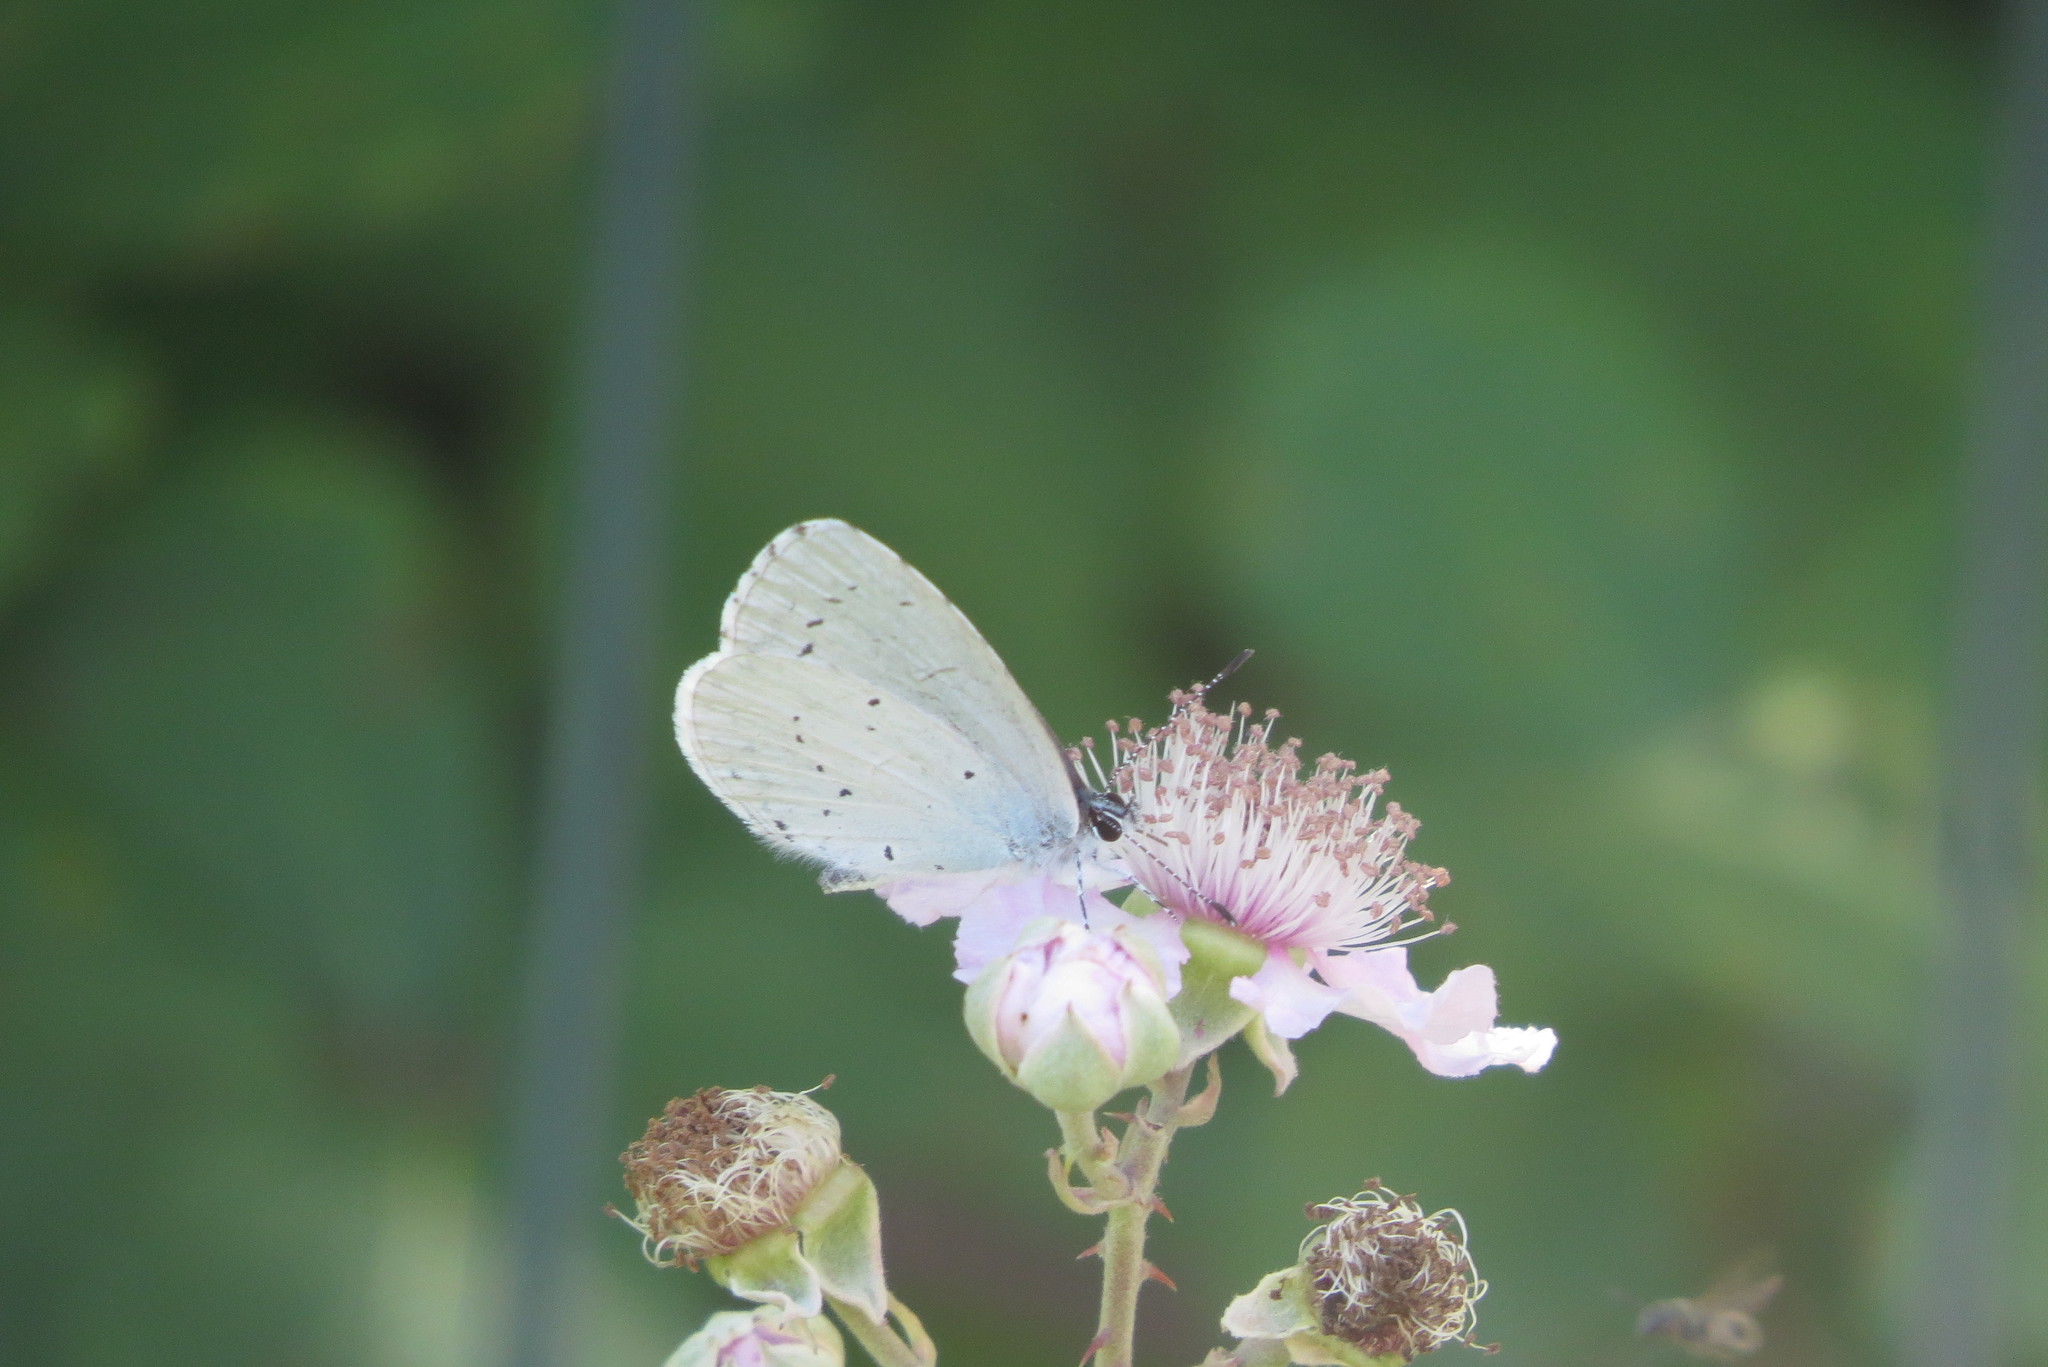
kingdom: Animalia
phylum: Arthropoda
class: Insecta
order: Lepidoptera
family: Lycaenidae
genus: Celastrina
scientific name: Celastrina argiolus
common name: Holly blue
